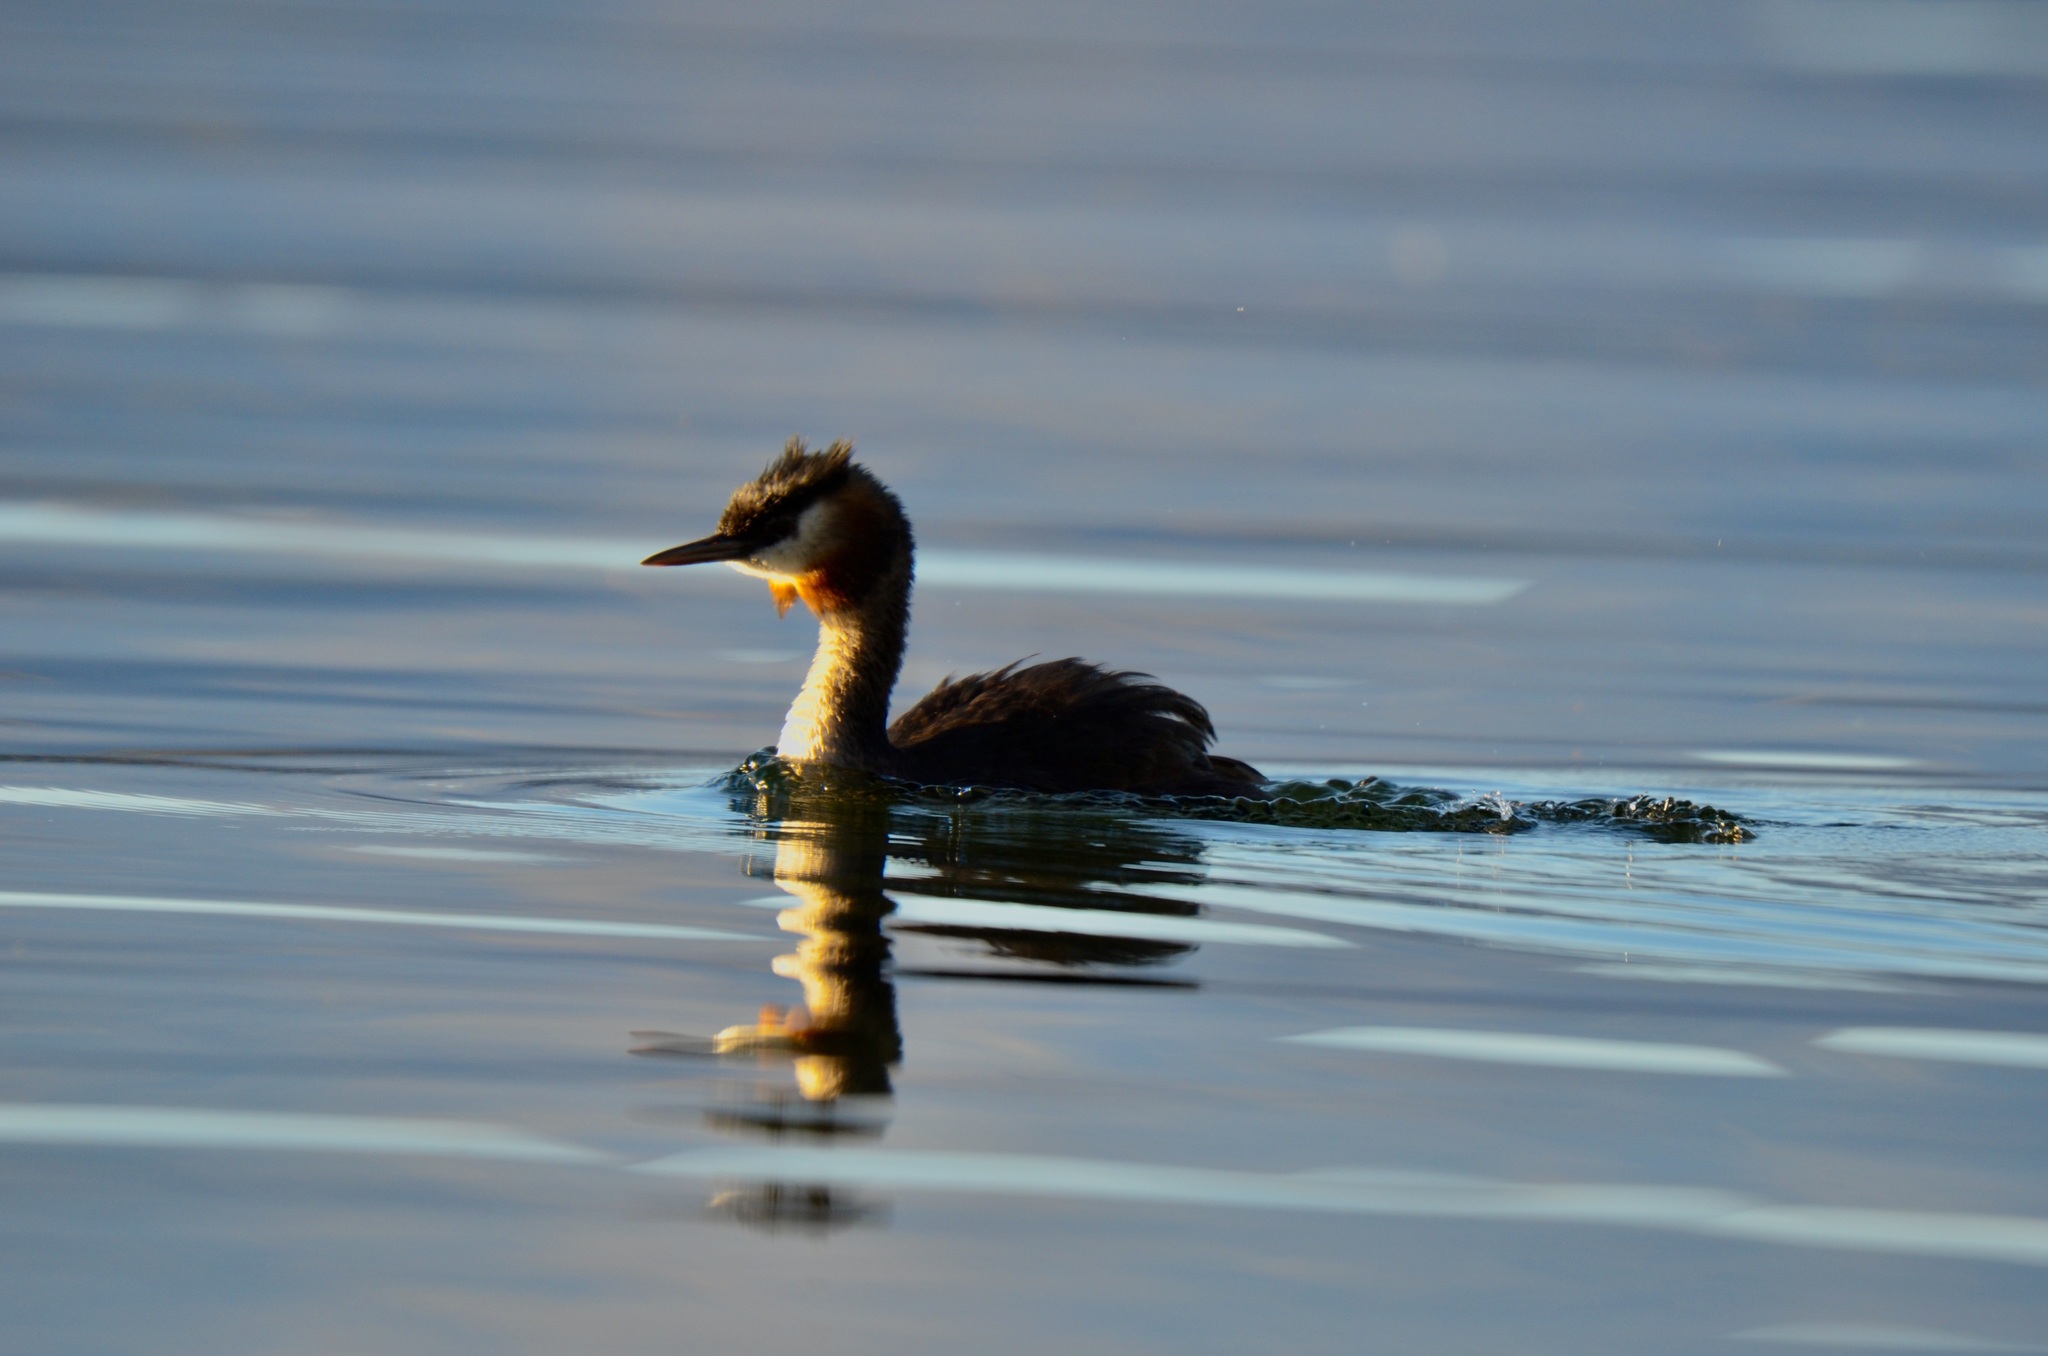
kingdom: Animalia
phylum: Chordata
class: Aves
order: Podicipediformes
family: Podicipedidae
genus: Podiceps
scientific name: Podiceps cristatus
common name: Great crested grebe
